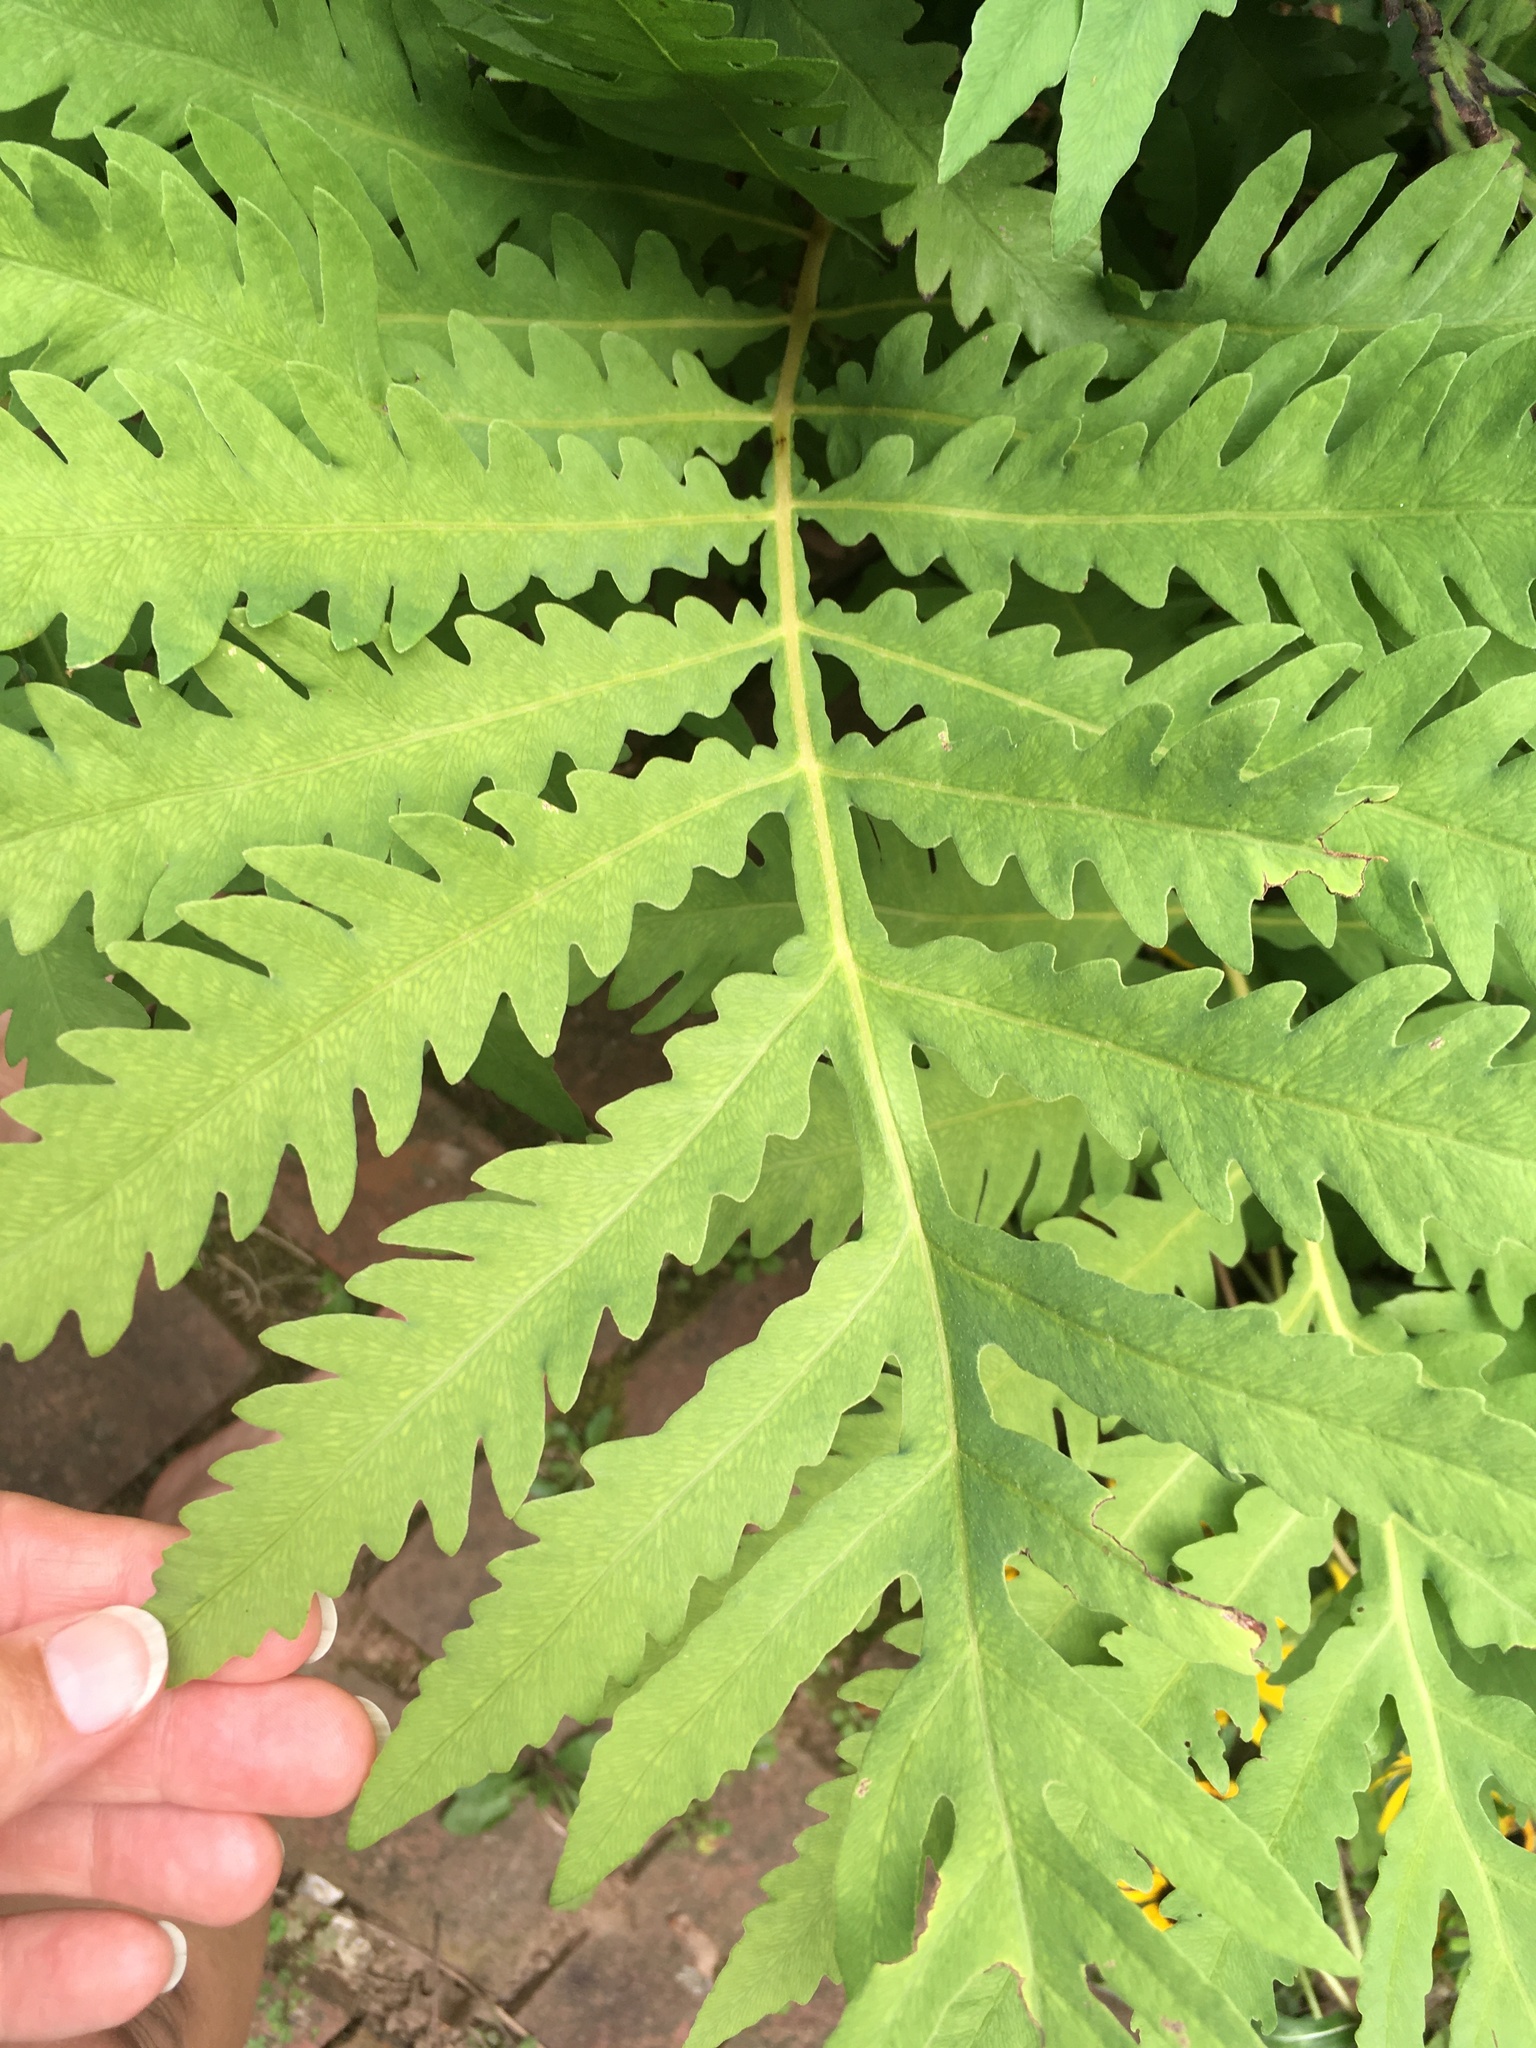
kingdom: Plantae
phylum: Tracheophyta
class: Polypodiopsida
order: Polypodiales
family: Onocleaceae
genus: Onoclea
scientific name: Onoclea sensibilis
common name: Sensitive fern
